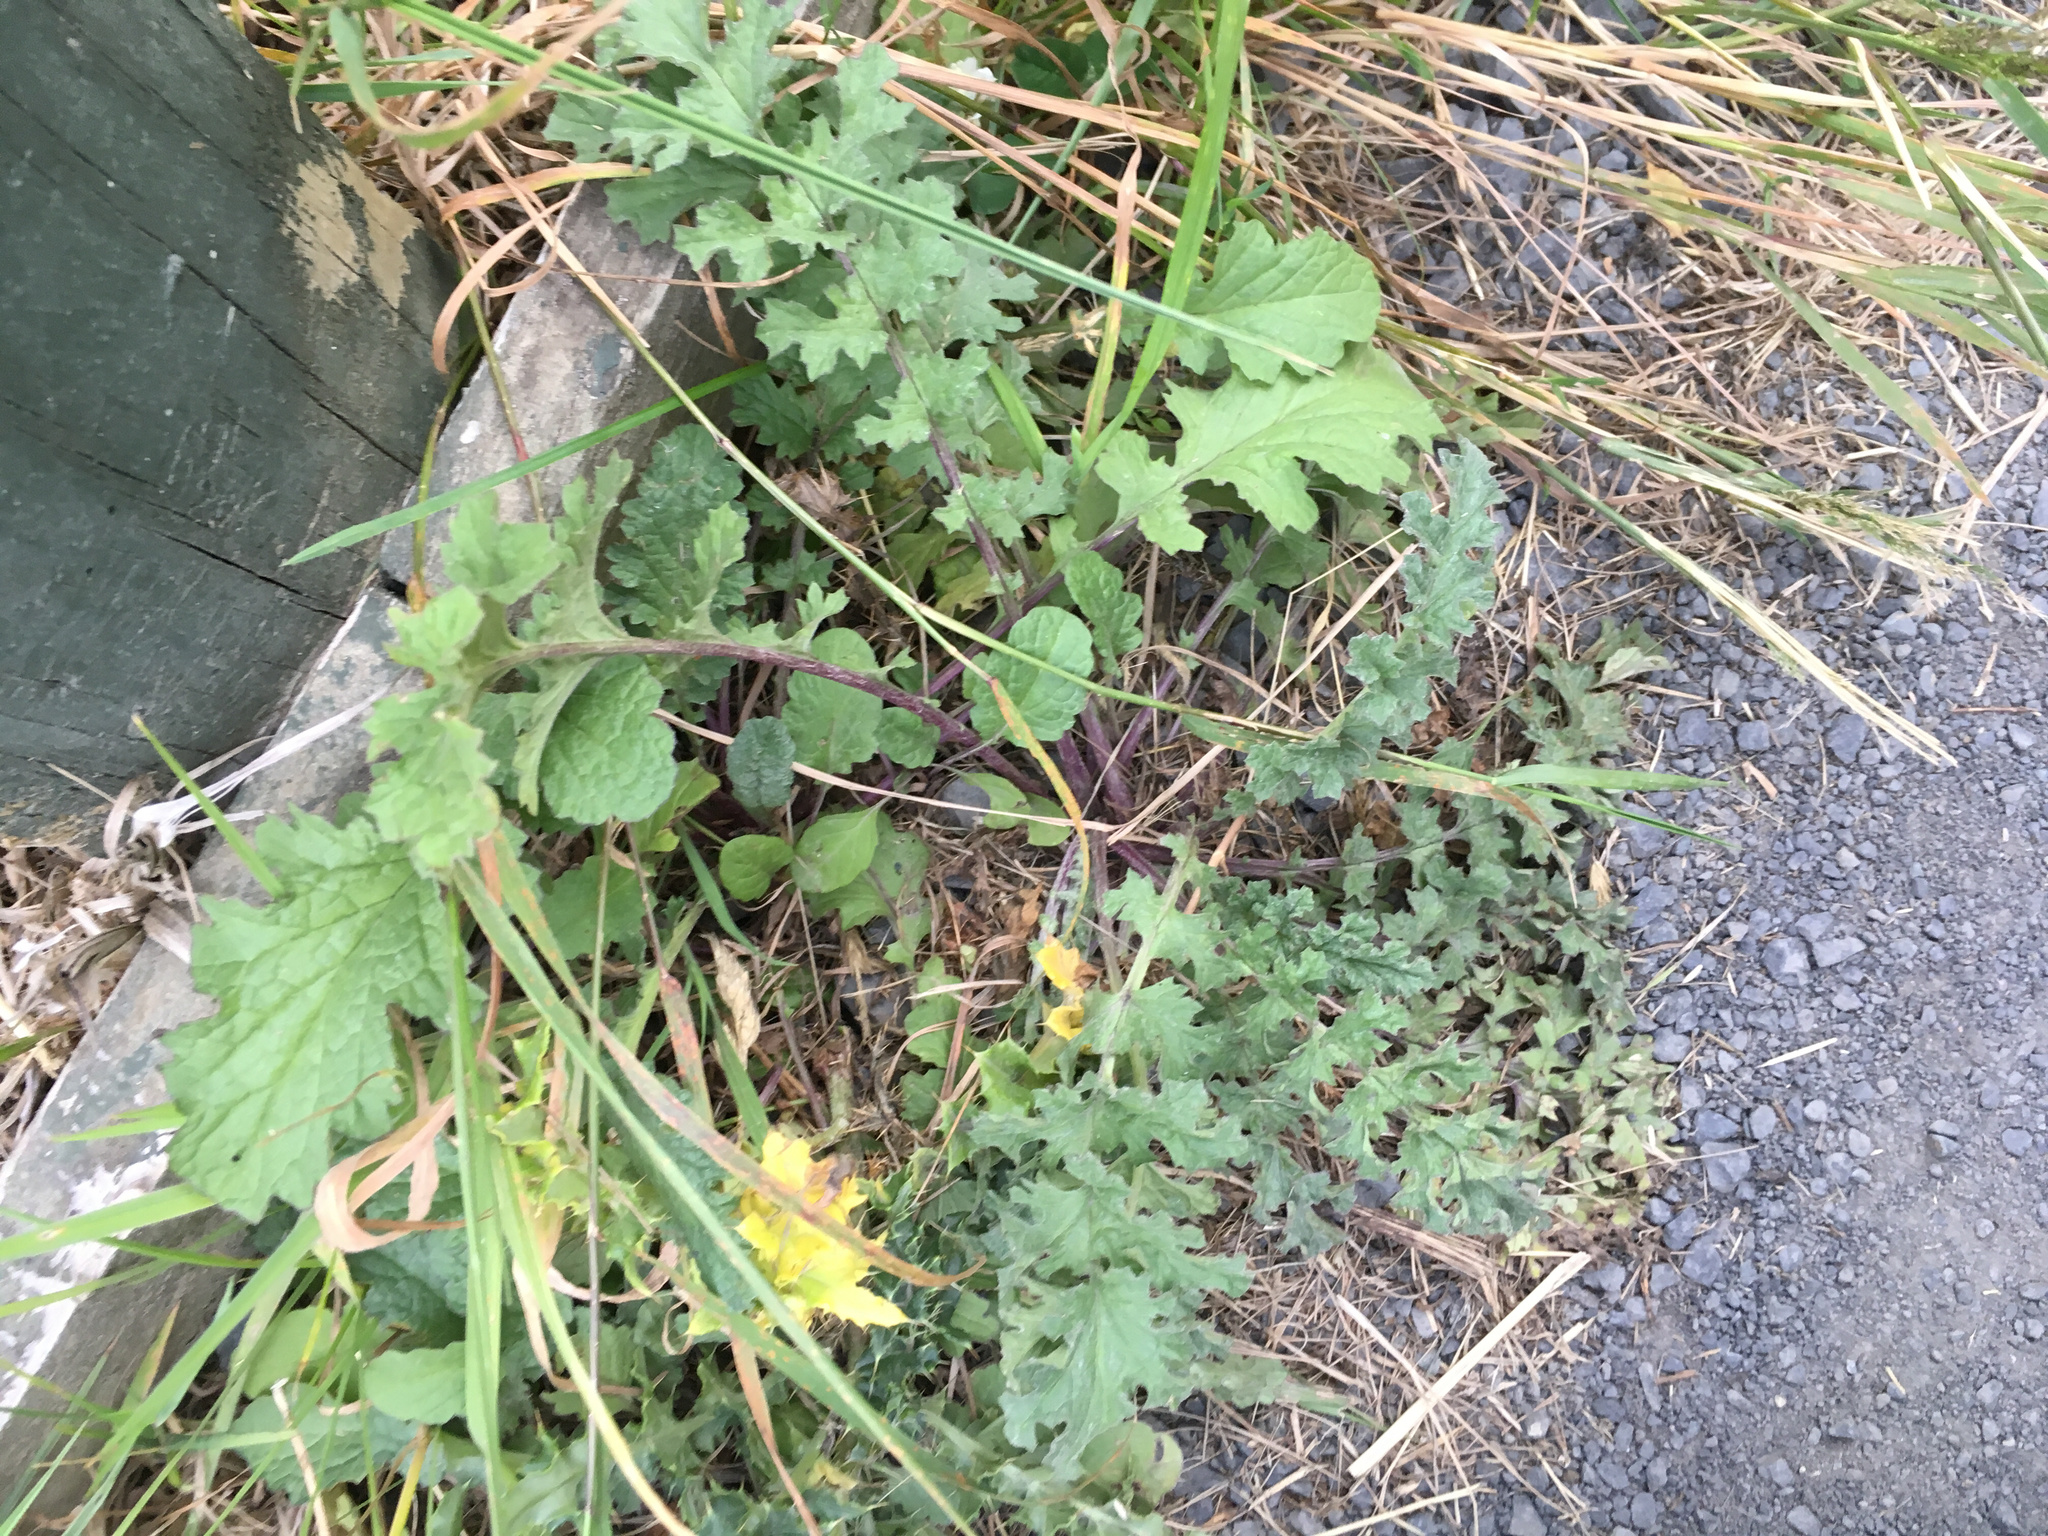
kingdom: Plantae
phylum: Tracheophyta
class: Magnoliopsida
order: Asterales
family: Asteraceae
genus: Jacobaea
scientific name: Jacobaea vulgaris
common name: Stinking willie
